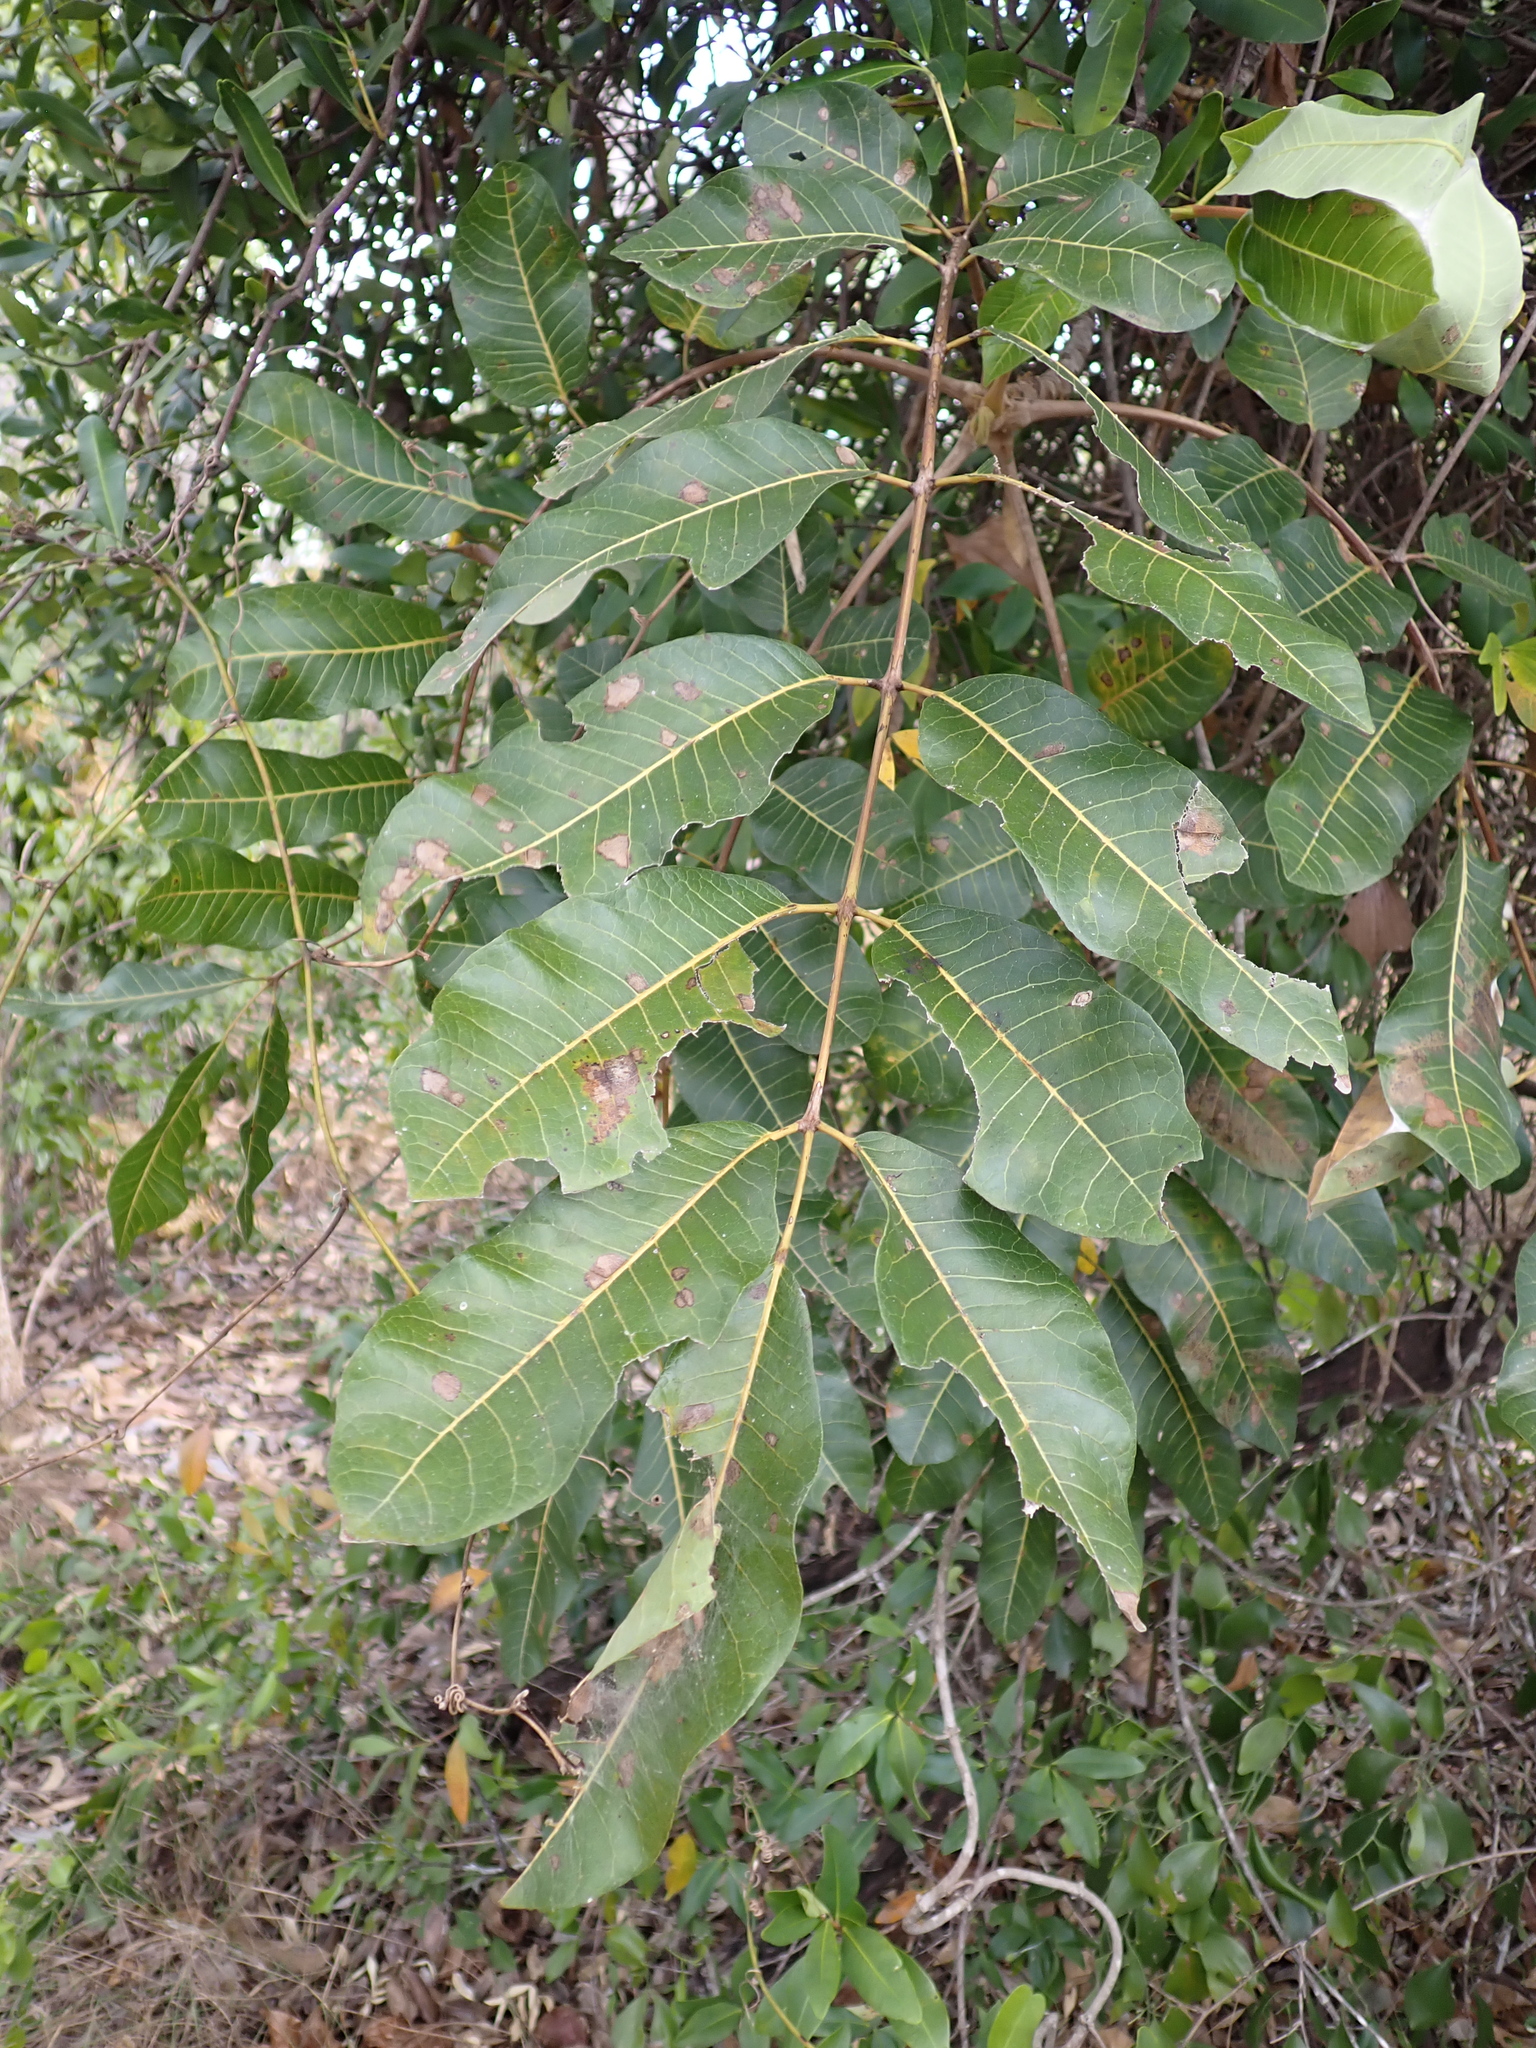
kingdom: Plantae
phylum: Tracheophyta
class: Magnoliopsida
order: Sapindales
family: Burseraceae
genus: Canarium
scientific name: Canarium australianum
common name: Island white-beech
